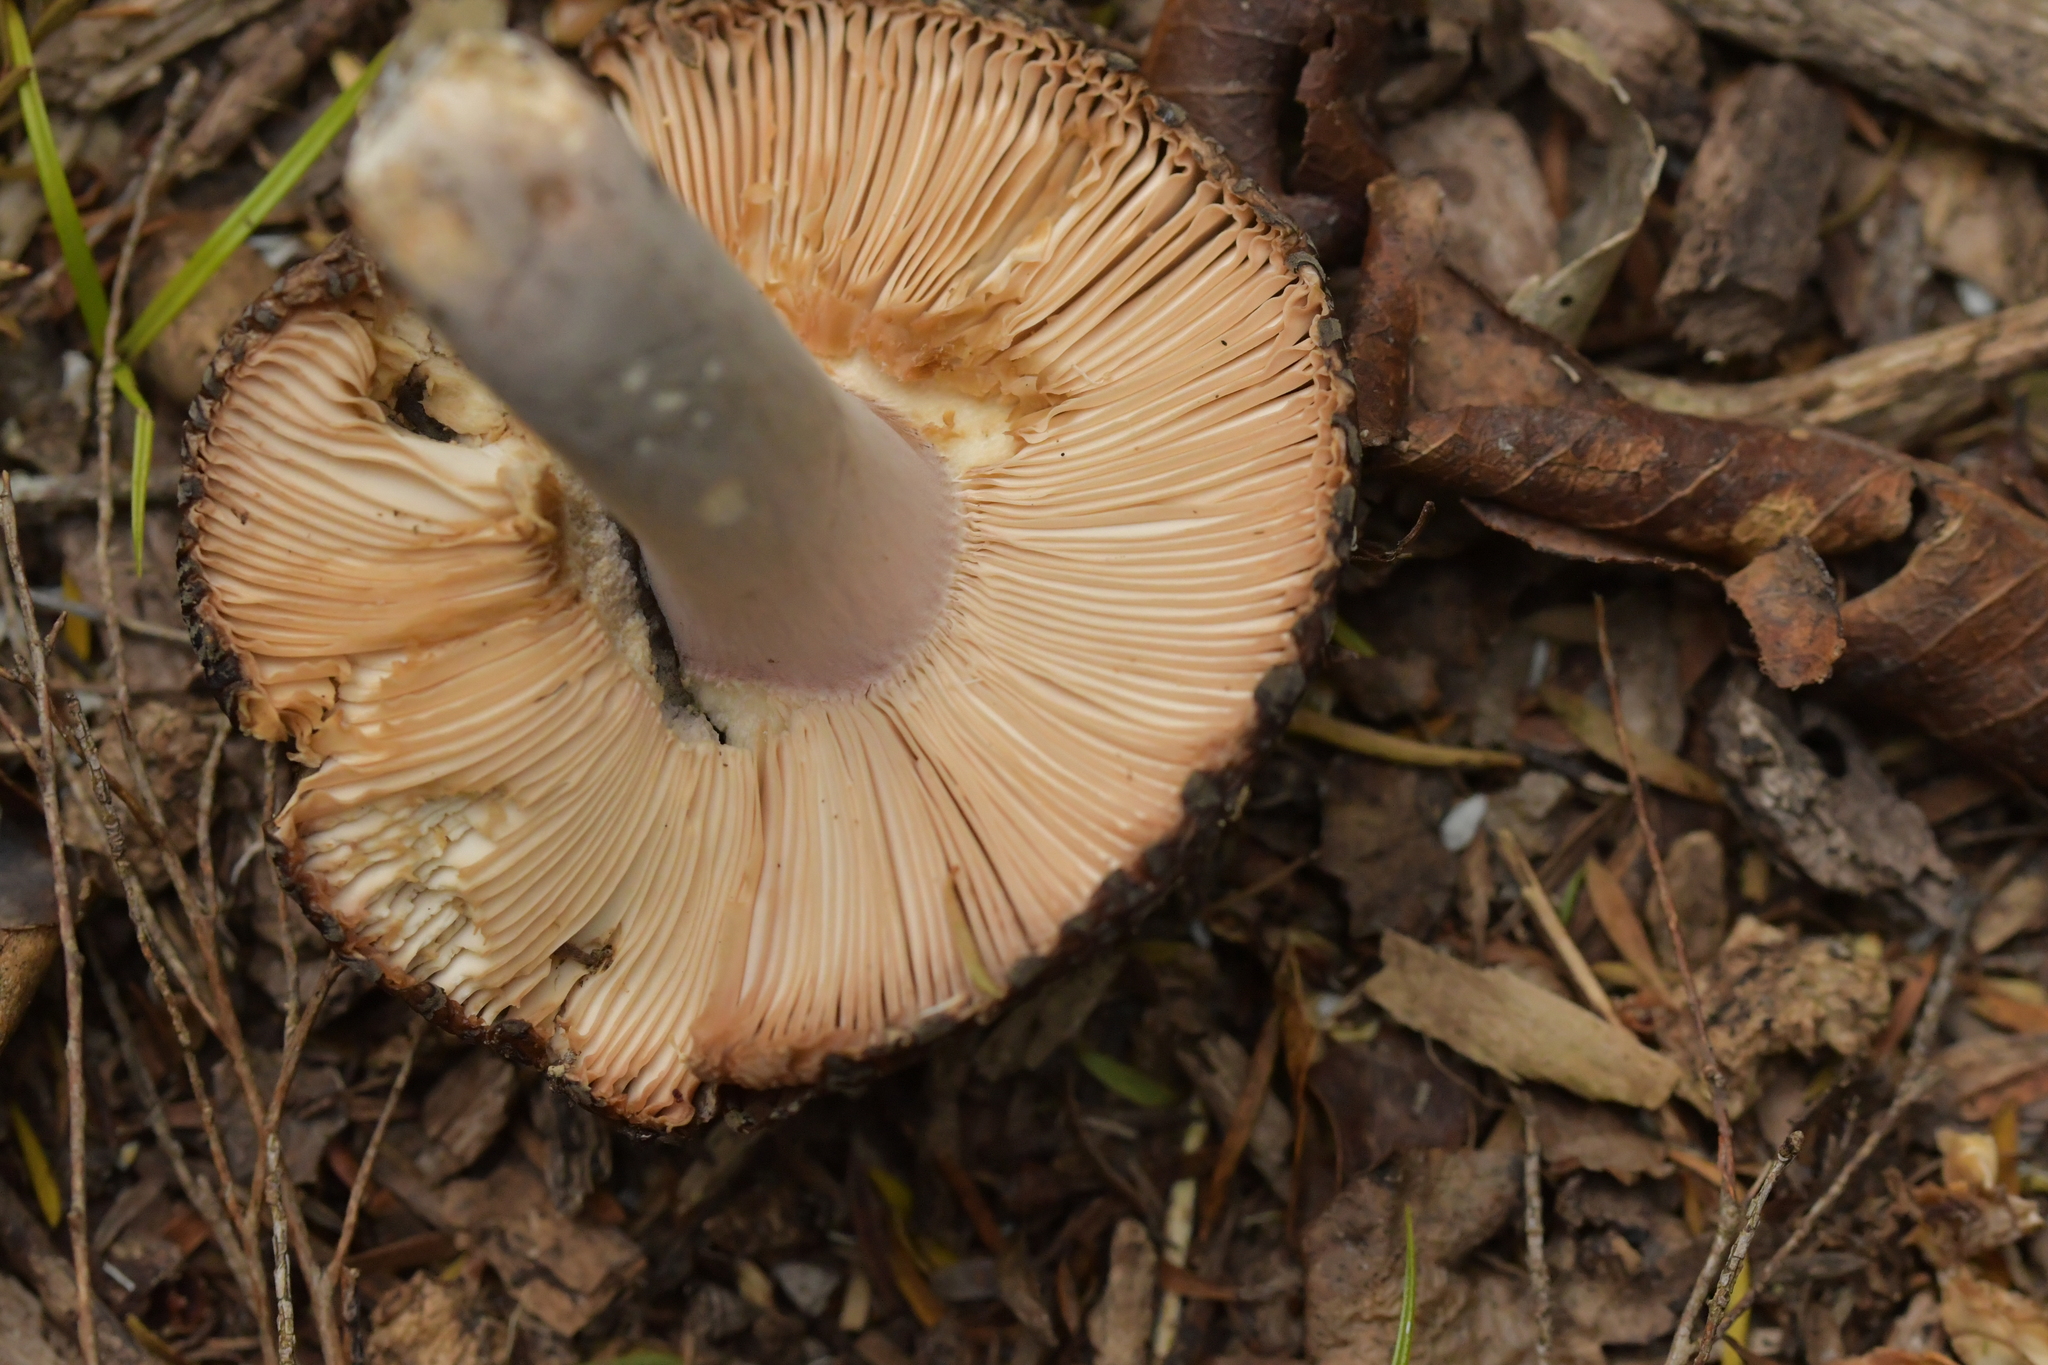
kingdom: Fungi
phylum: Basidiomycota
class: Agaricomycetes
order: Russulales
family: Russulaceae
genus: Russula
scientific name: Russula griseoviridis
